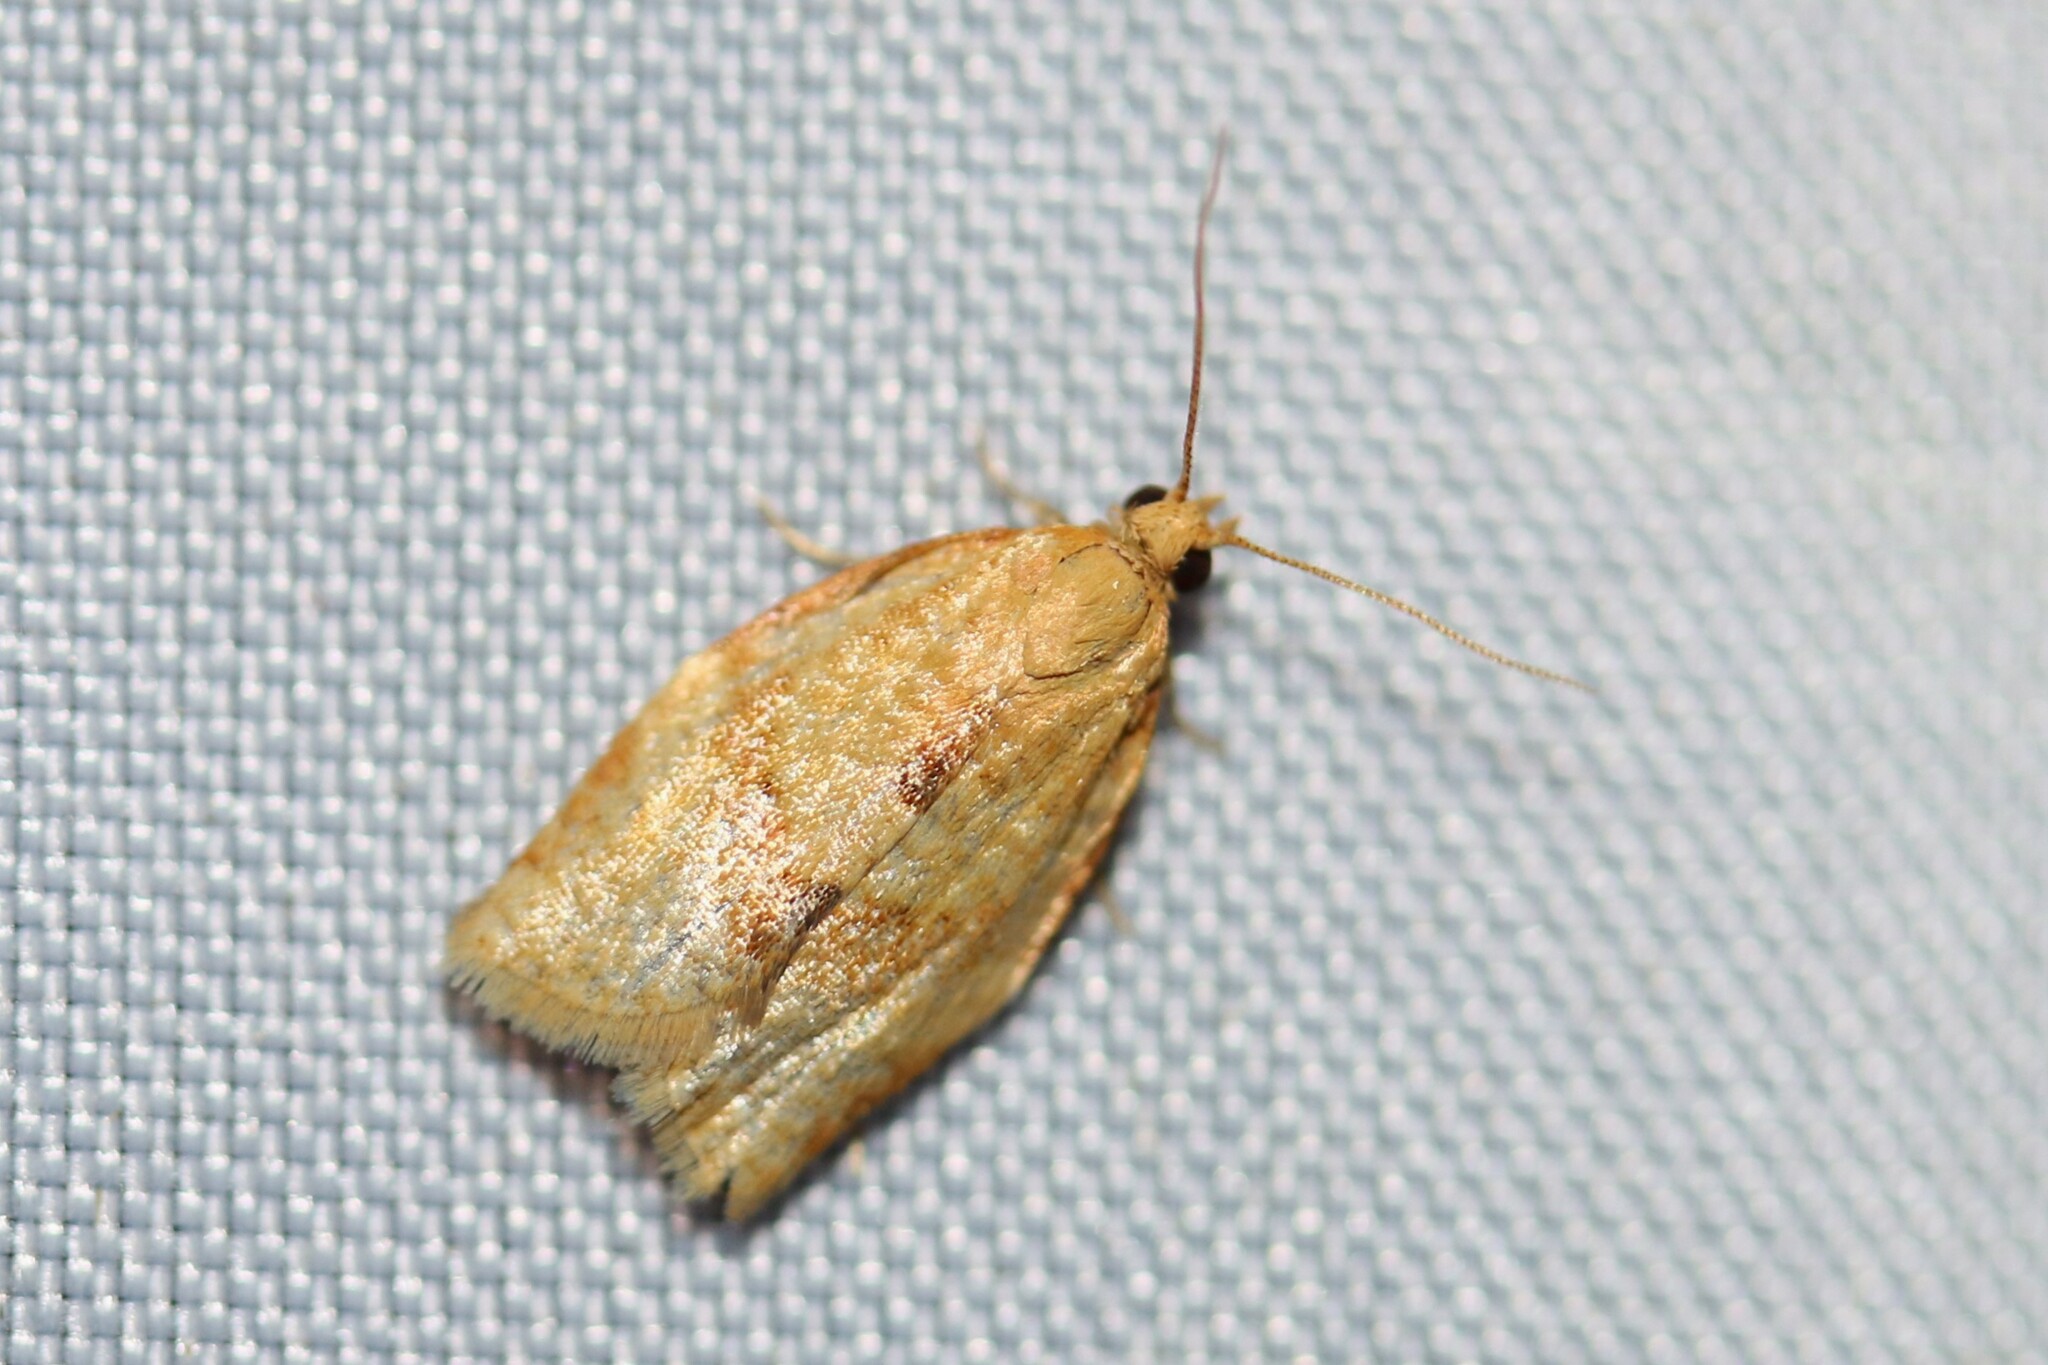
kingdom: Animalia
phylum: Arthropoda
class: Insecta
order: Lepidoptera
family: Tortricidae
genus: Clepsis
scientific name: Clepsis consimilana
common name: Privet tortrix
